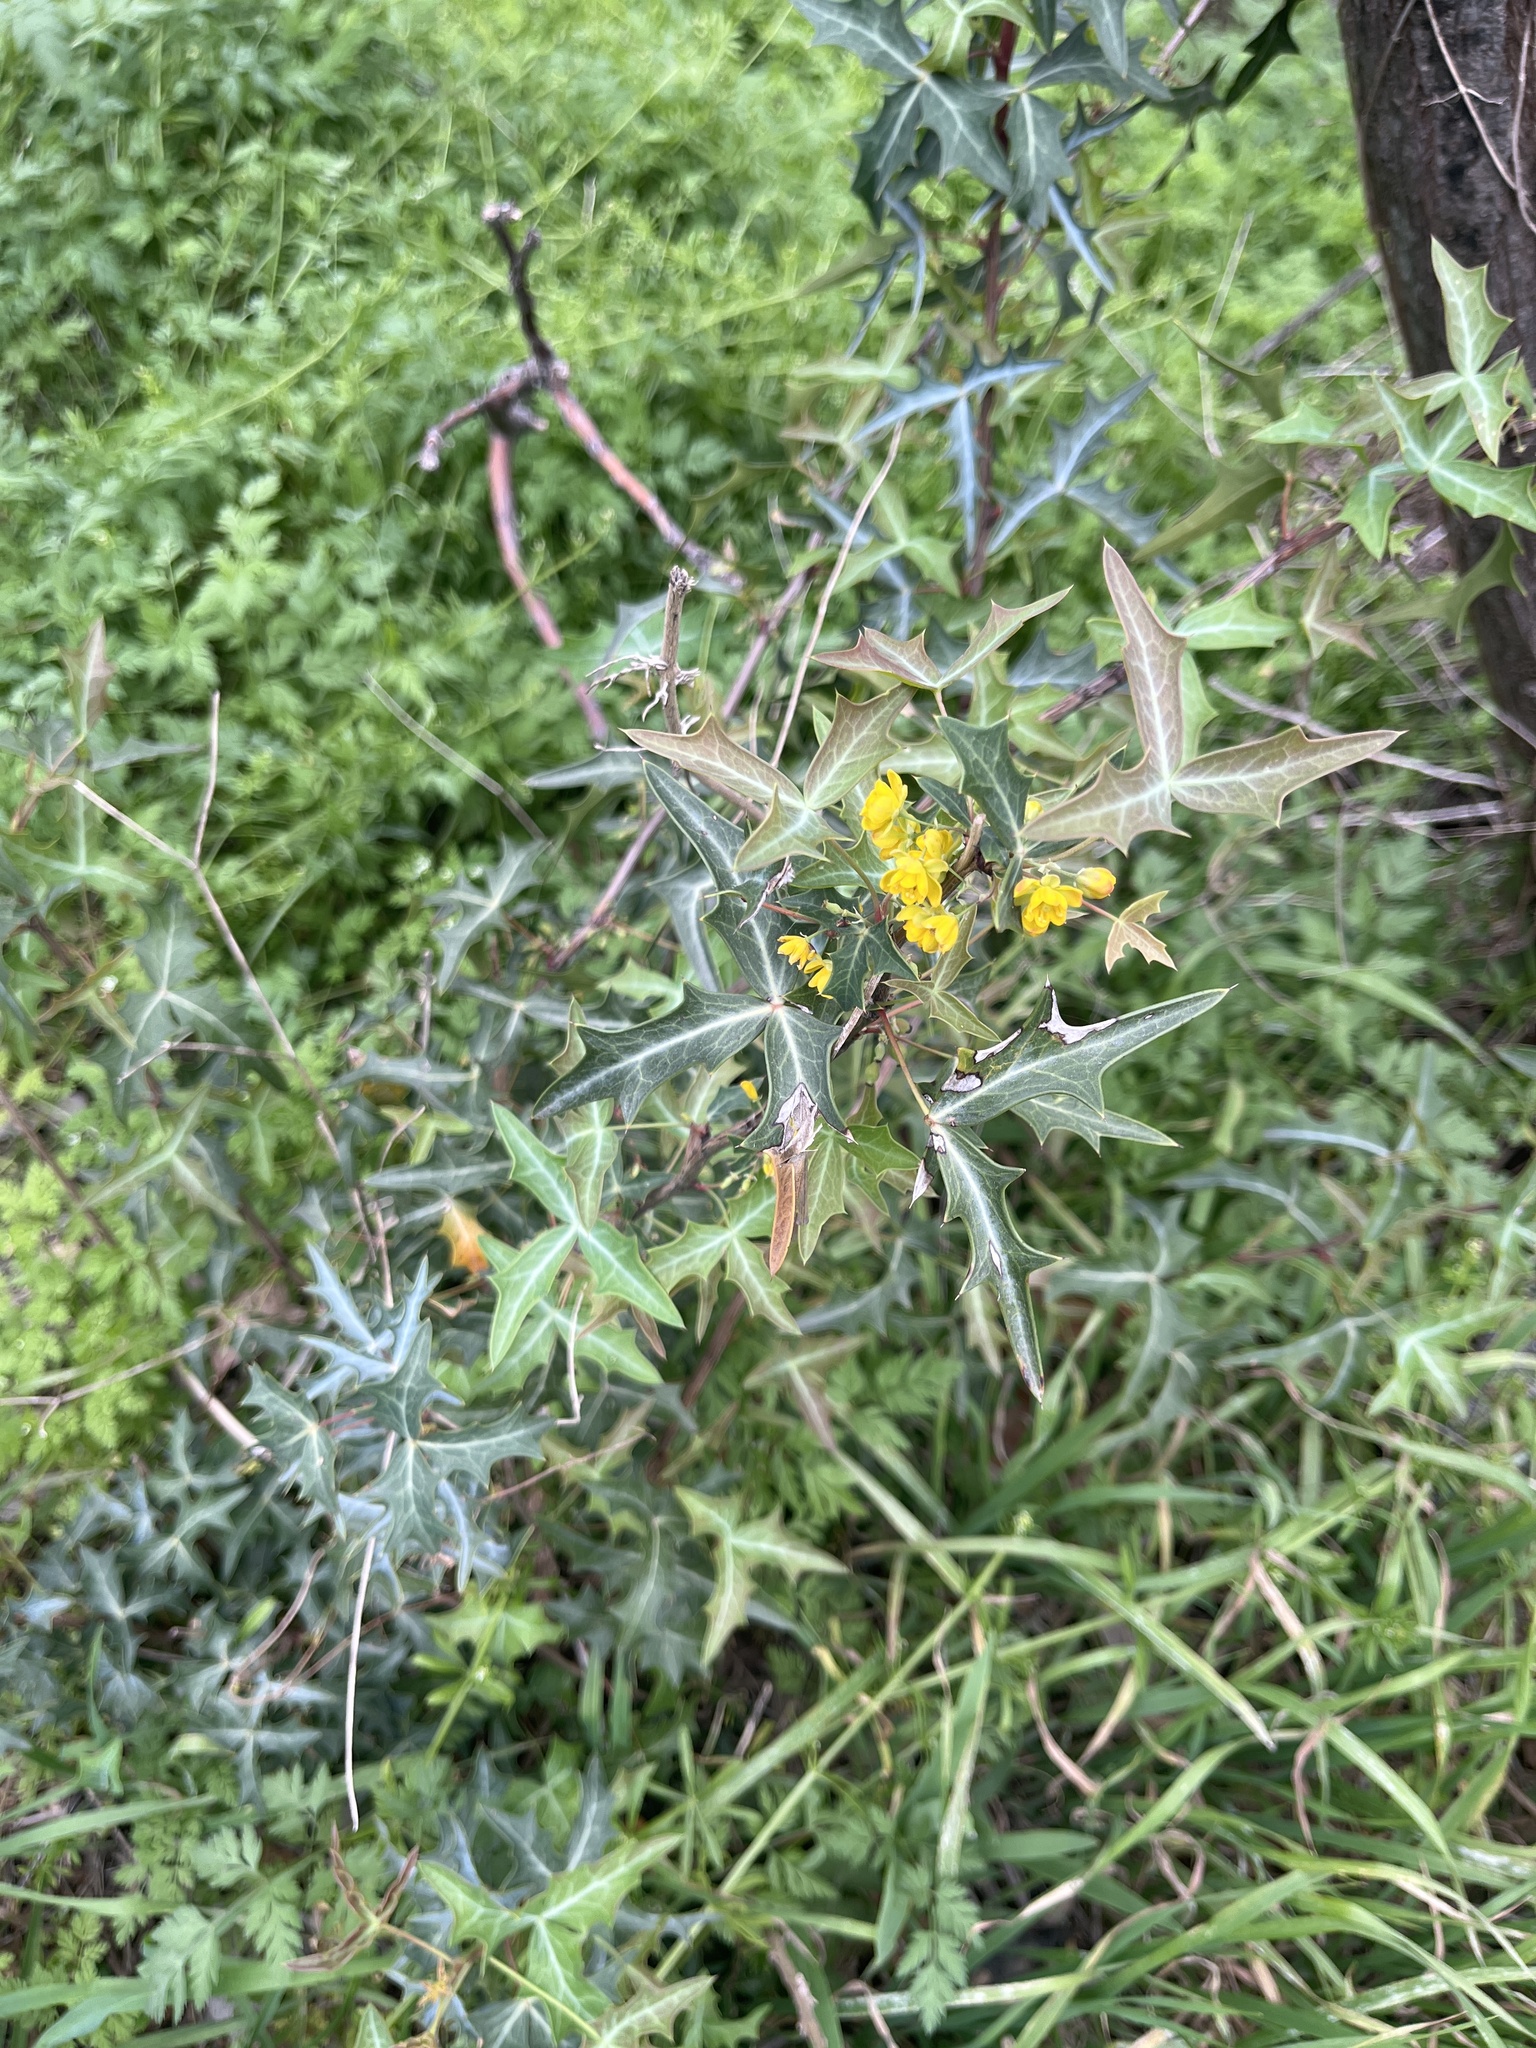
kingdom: Plantae
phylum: Tracheophyta
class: Magnoliopsida
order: Ranunculales
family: Berberidaceae
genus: Alloberberis
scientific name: Alloberberis trifoliolata
